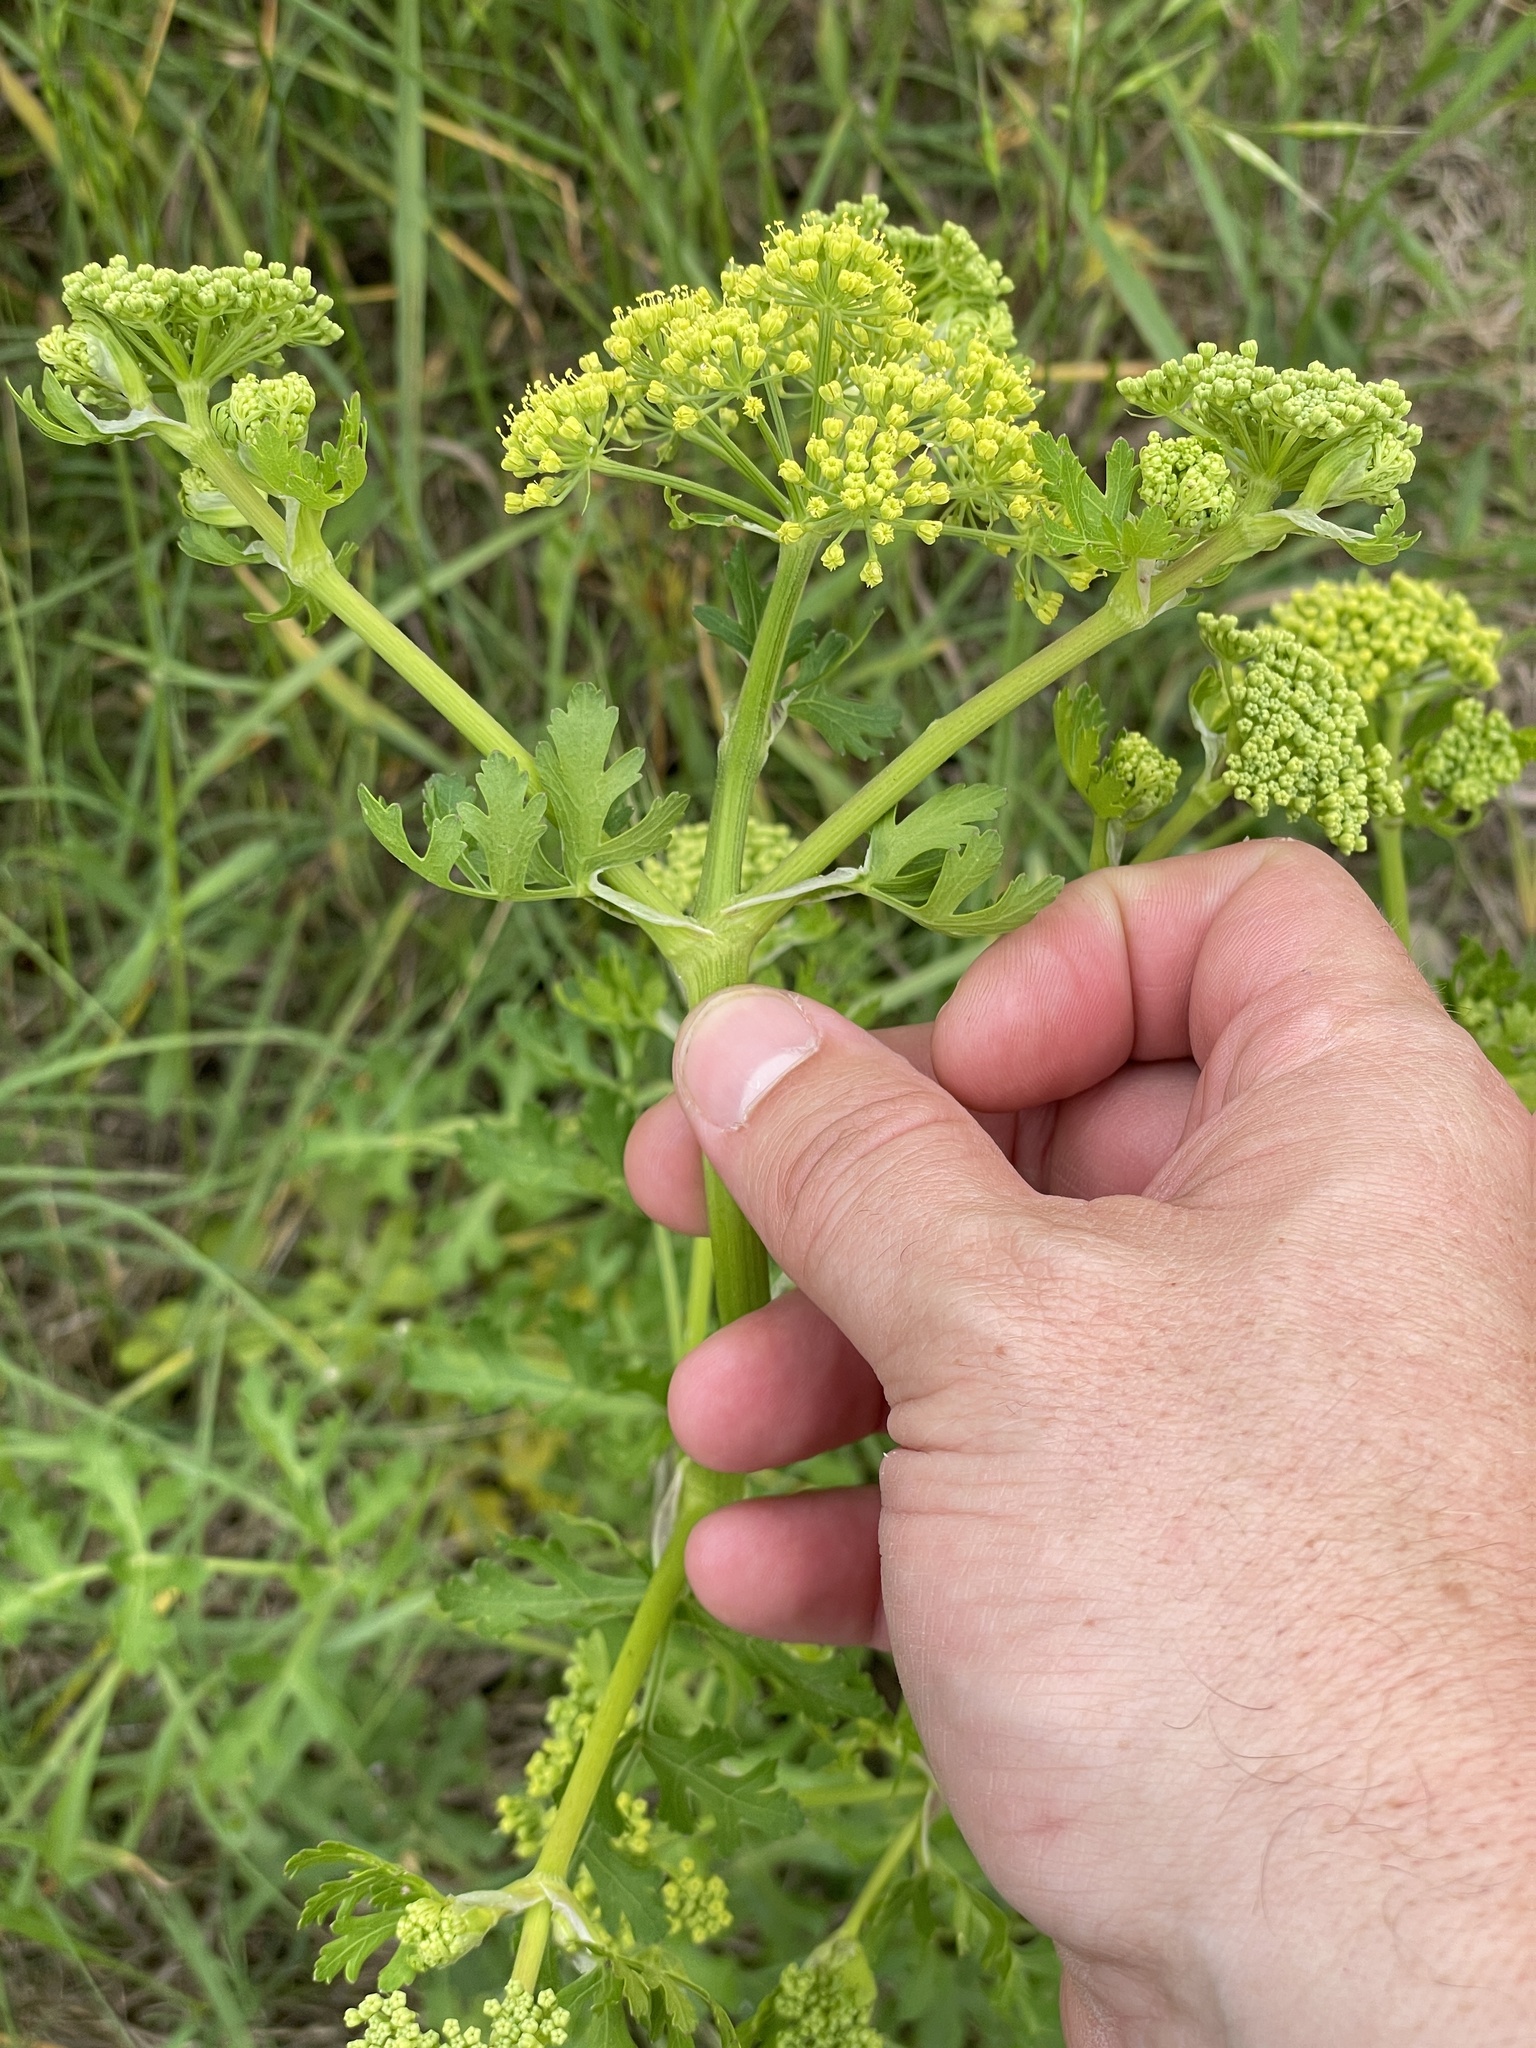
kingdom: Plantae
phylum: Tracheophyta
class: Magnoliopsida
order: Apiales
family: Apiaceae
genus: Polytaenia
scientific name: Polytaenia texana
